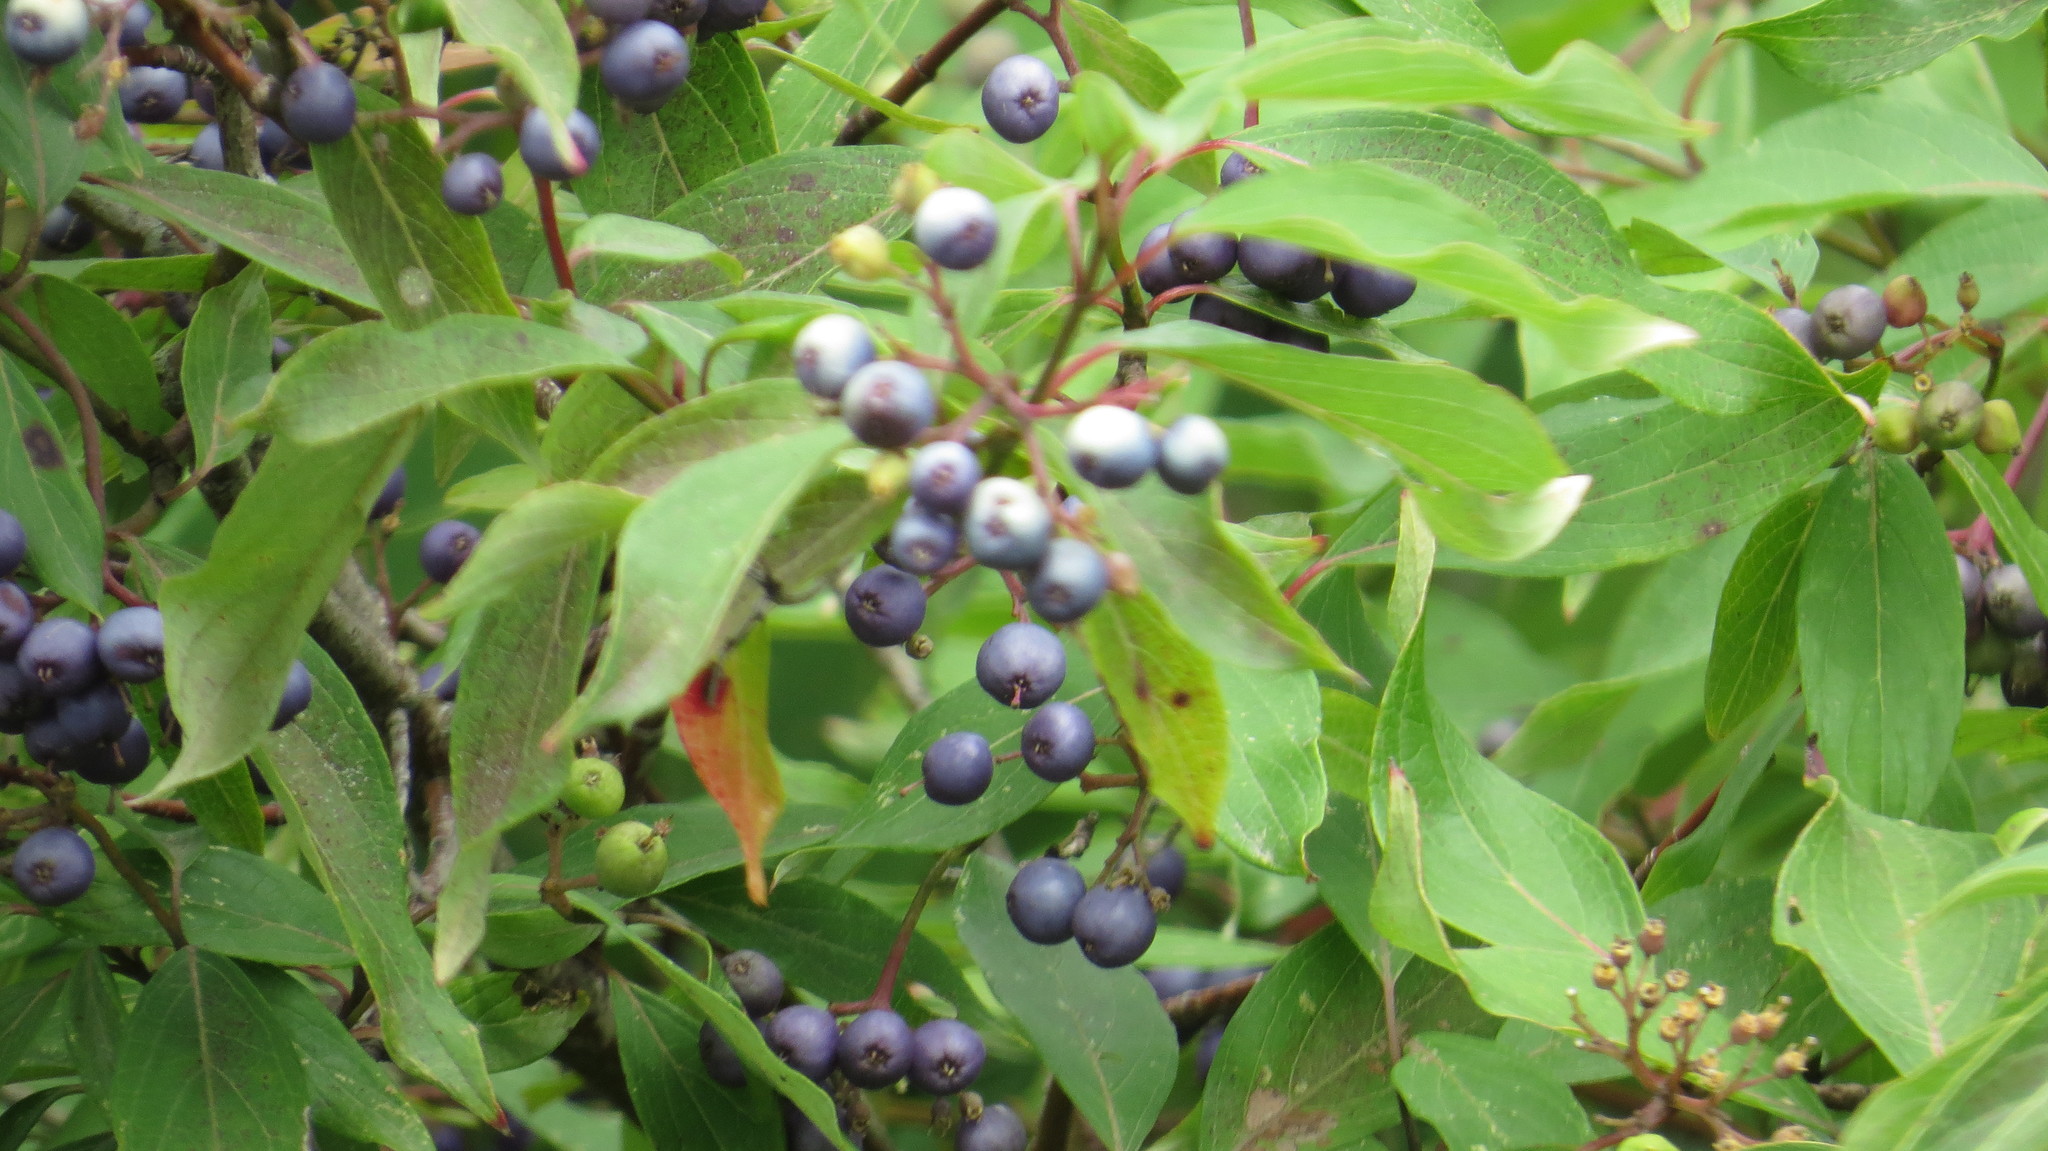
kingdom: Plantae
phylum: Tracheophyta
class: Magnoliopsida
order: Cornales
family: Cornaceae
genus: Cornus
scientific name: Cornus amomum
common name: Silky dogwood
